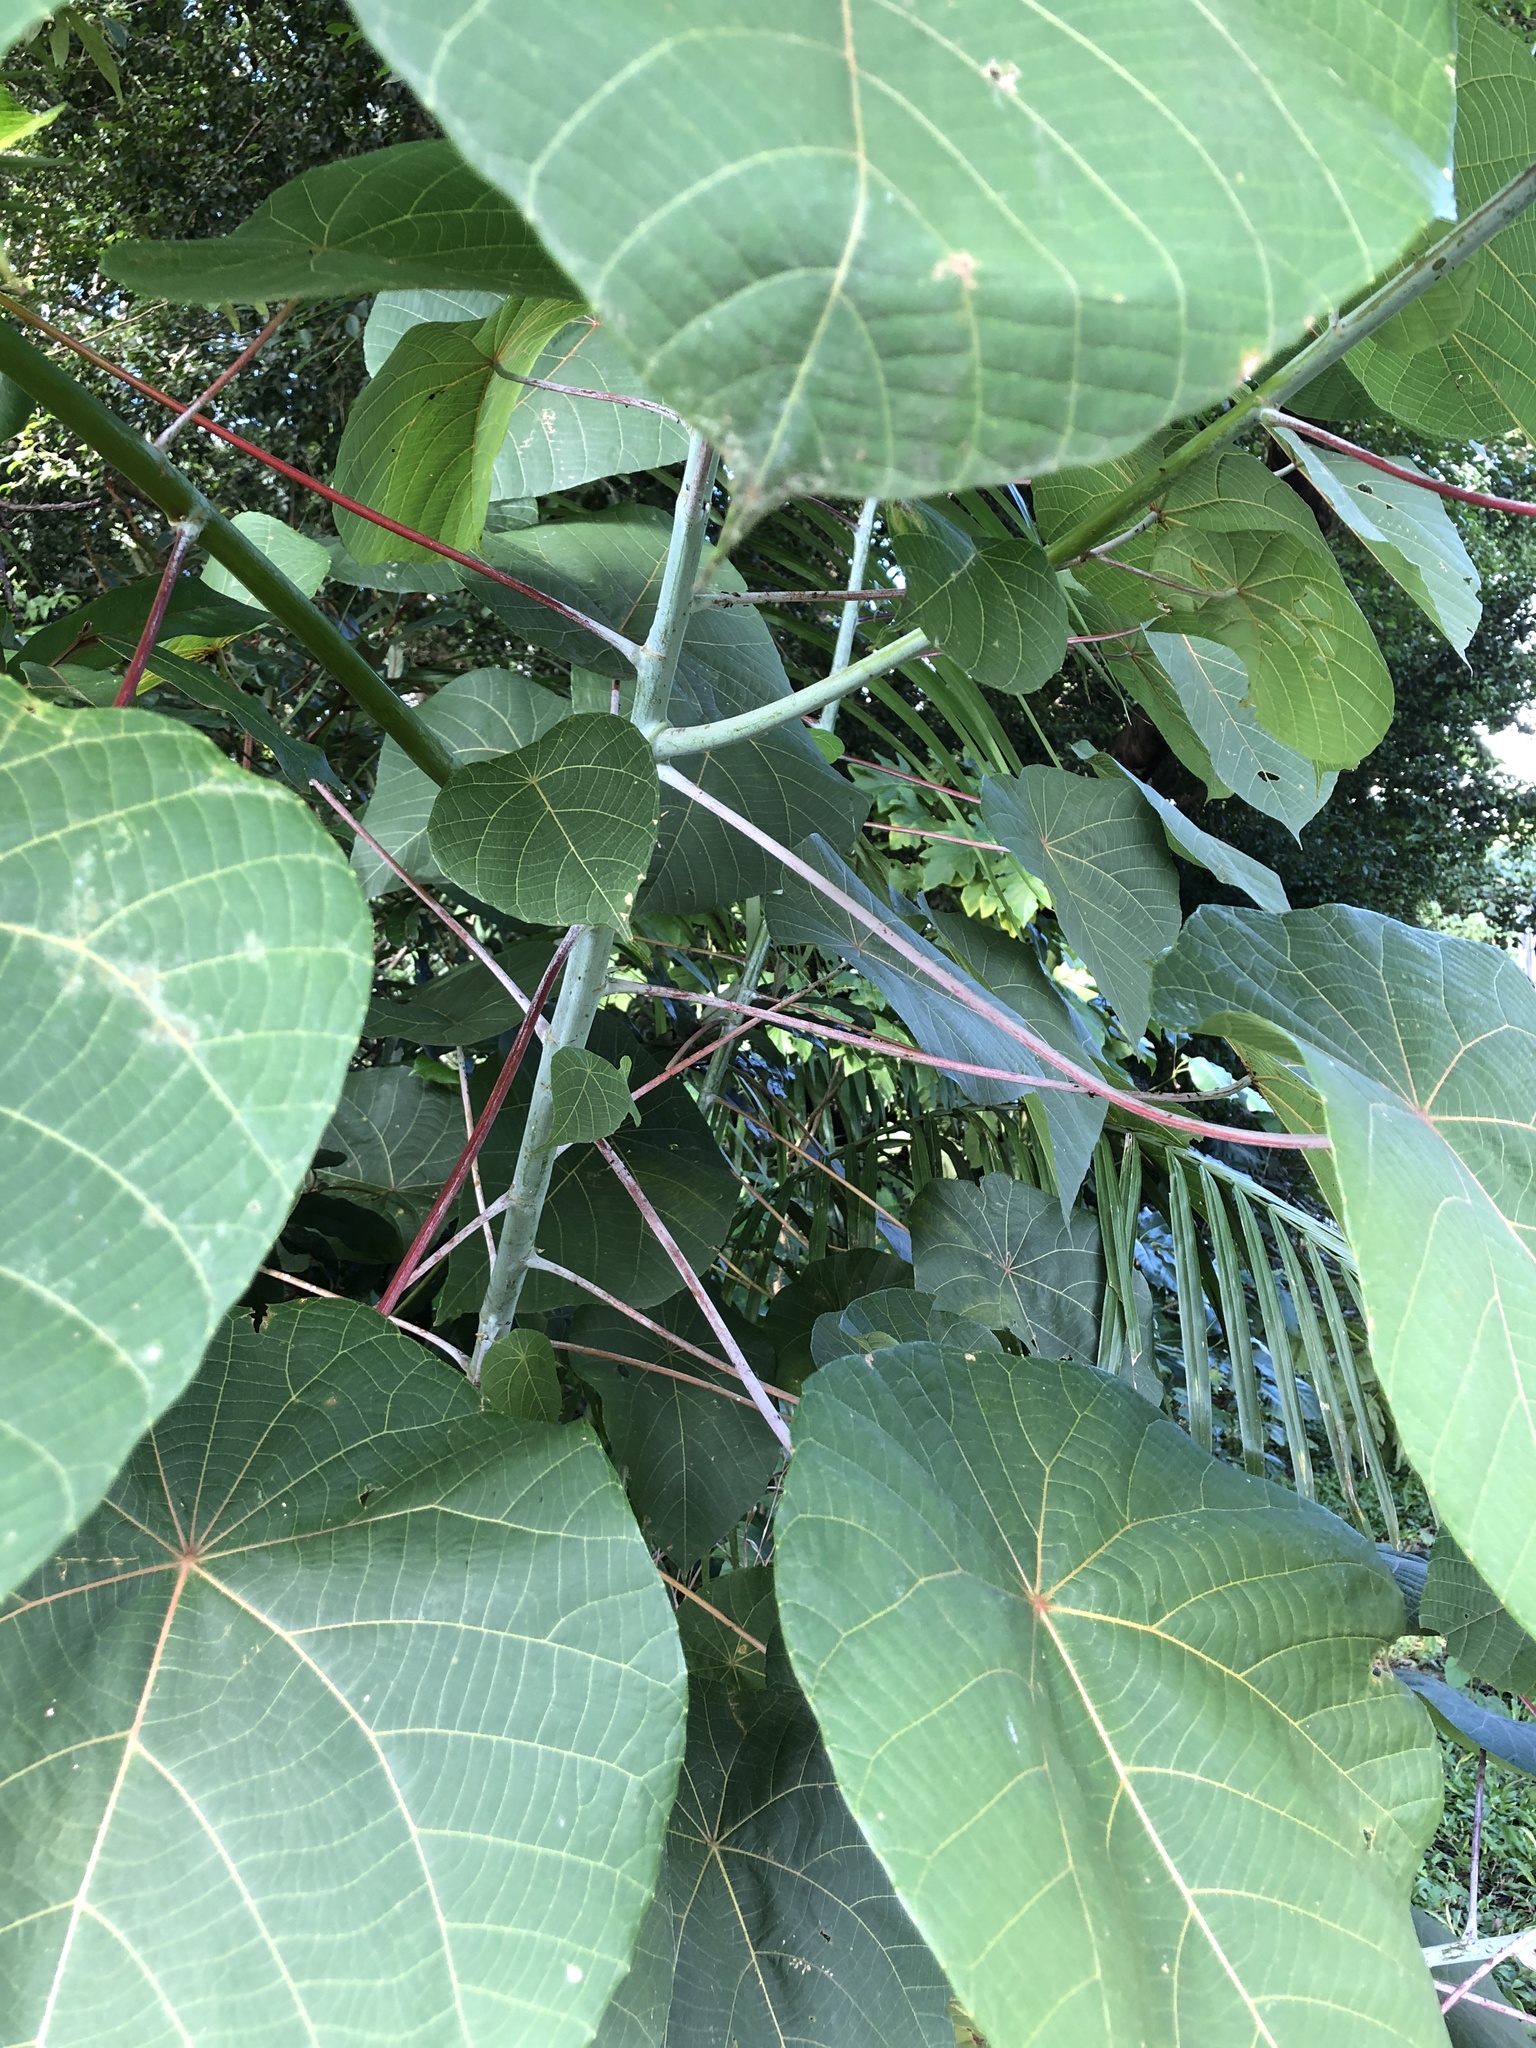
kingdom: Plantae
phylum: Tracheophyta
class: Magnoliopsida
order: Malpighiales
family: Euphorbiaceae
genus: Macaranga
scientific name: Macaranga tanarius
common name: Parasol leaf tree
